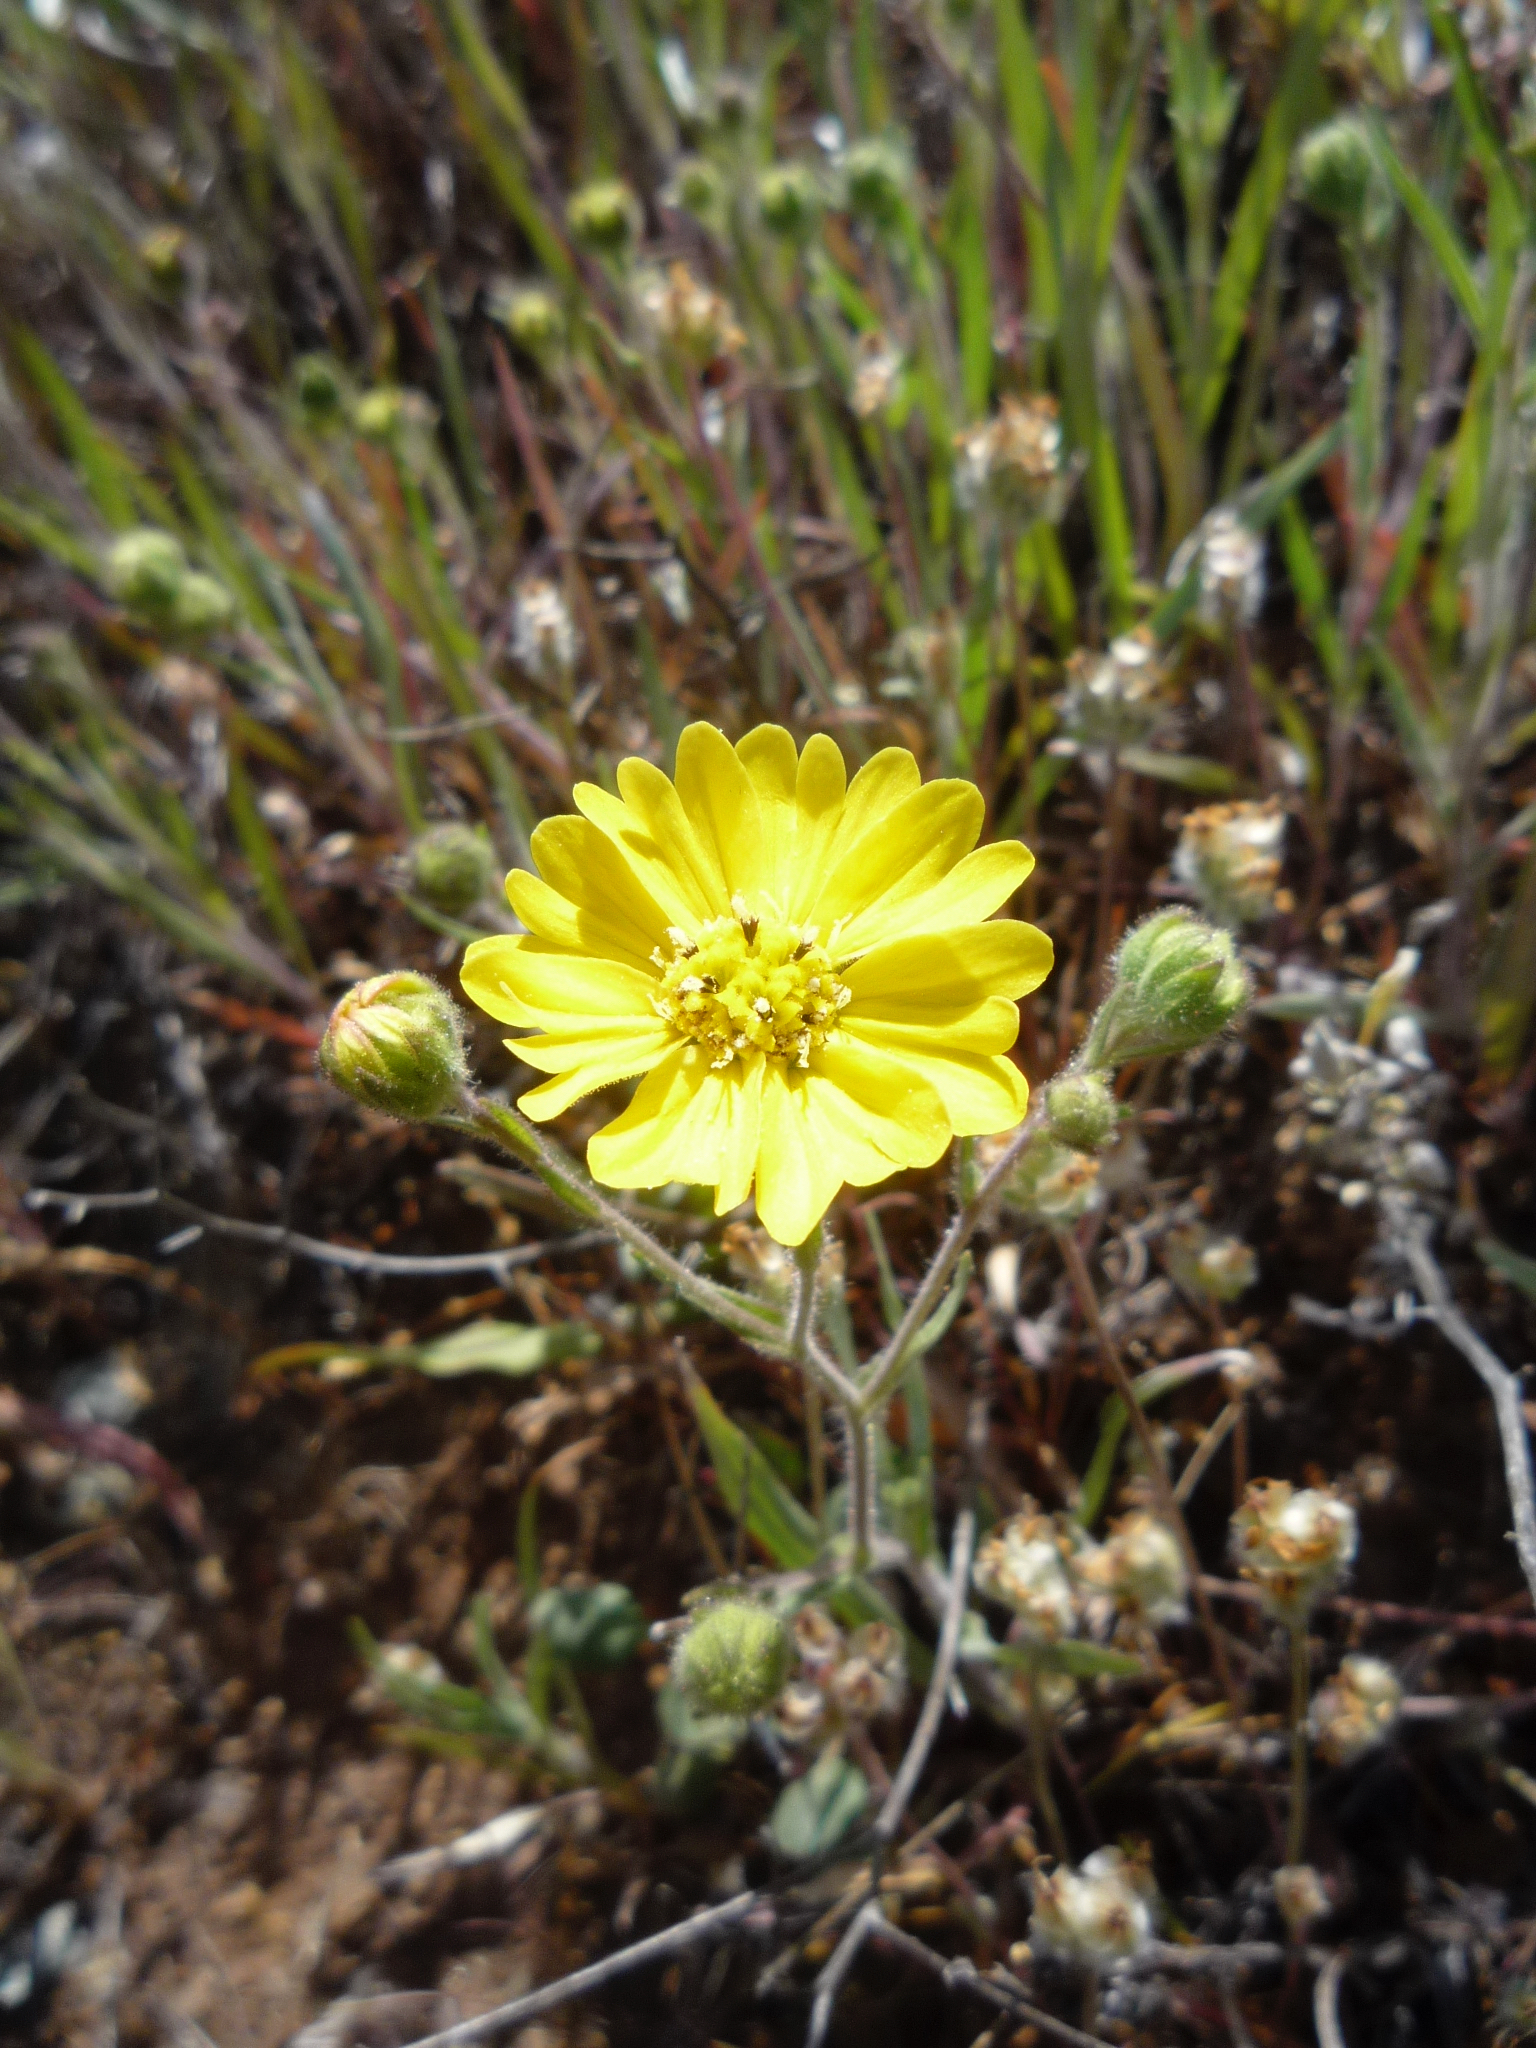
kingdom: Plantae
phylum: Tracheophyta
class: Magnoliopsida
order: Asterales
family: Asteraceae
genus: Hemizonia
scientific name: Hemizonia congesta
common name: Hayfield tarweed
